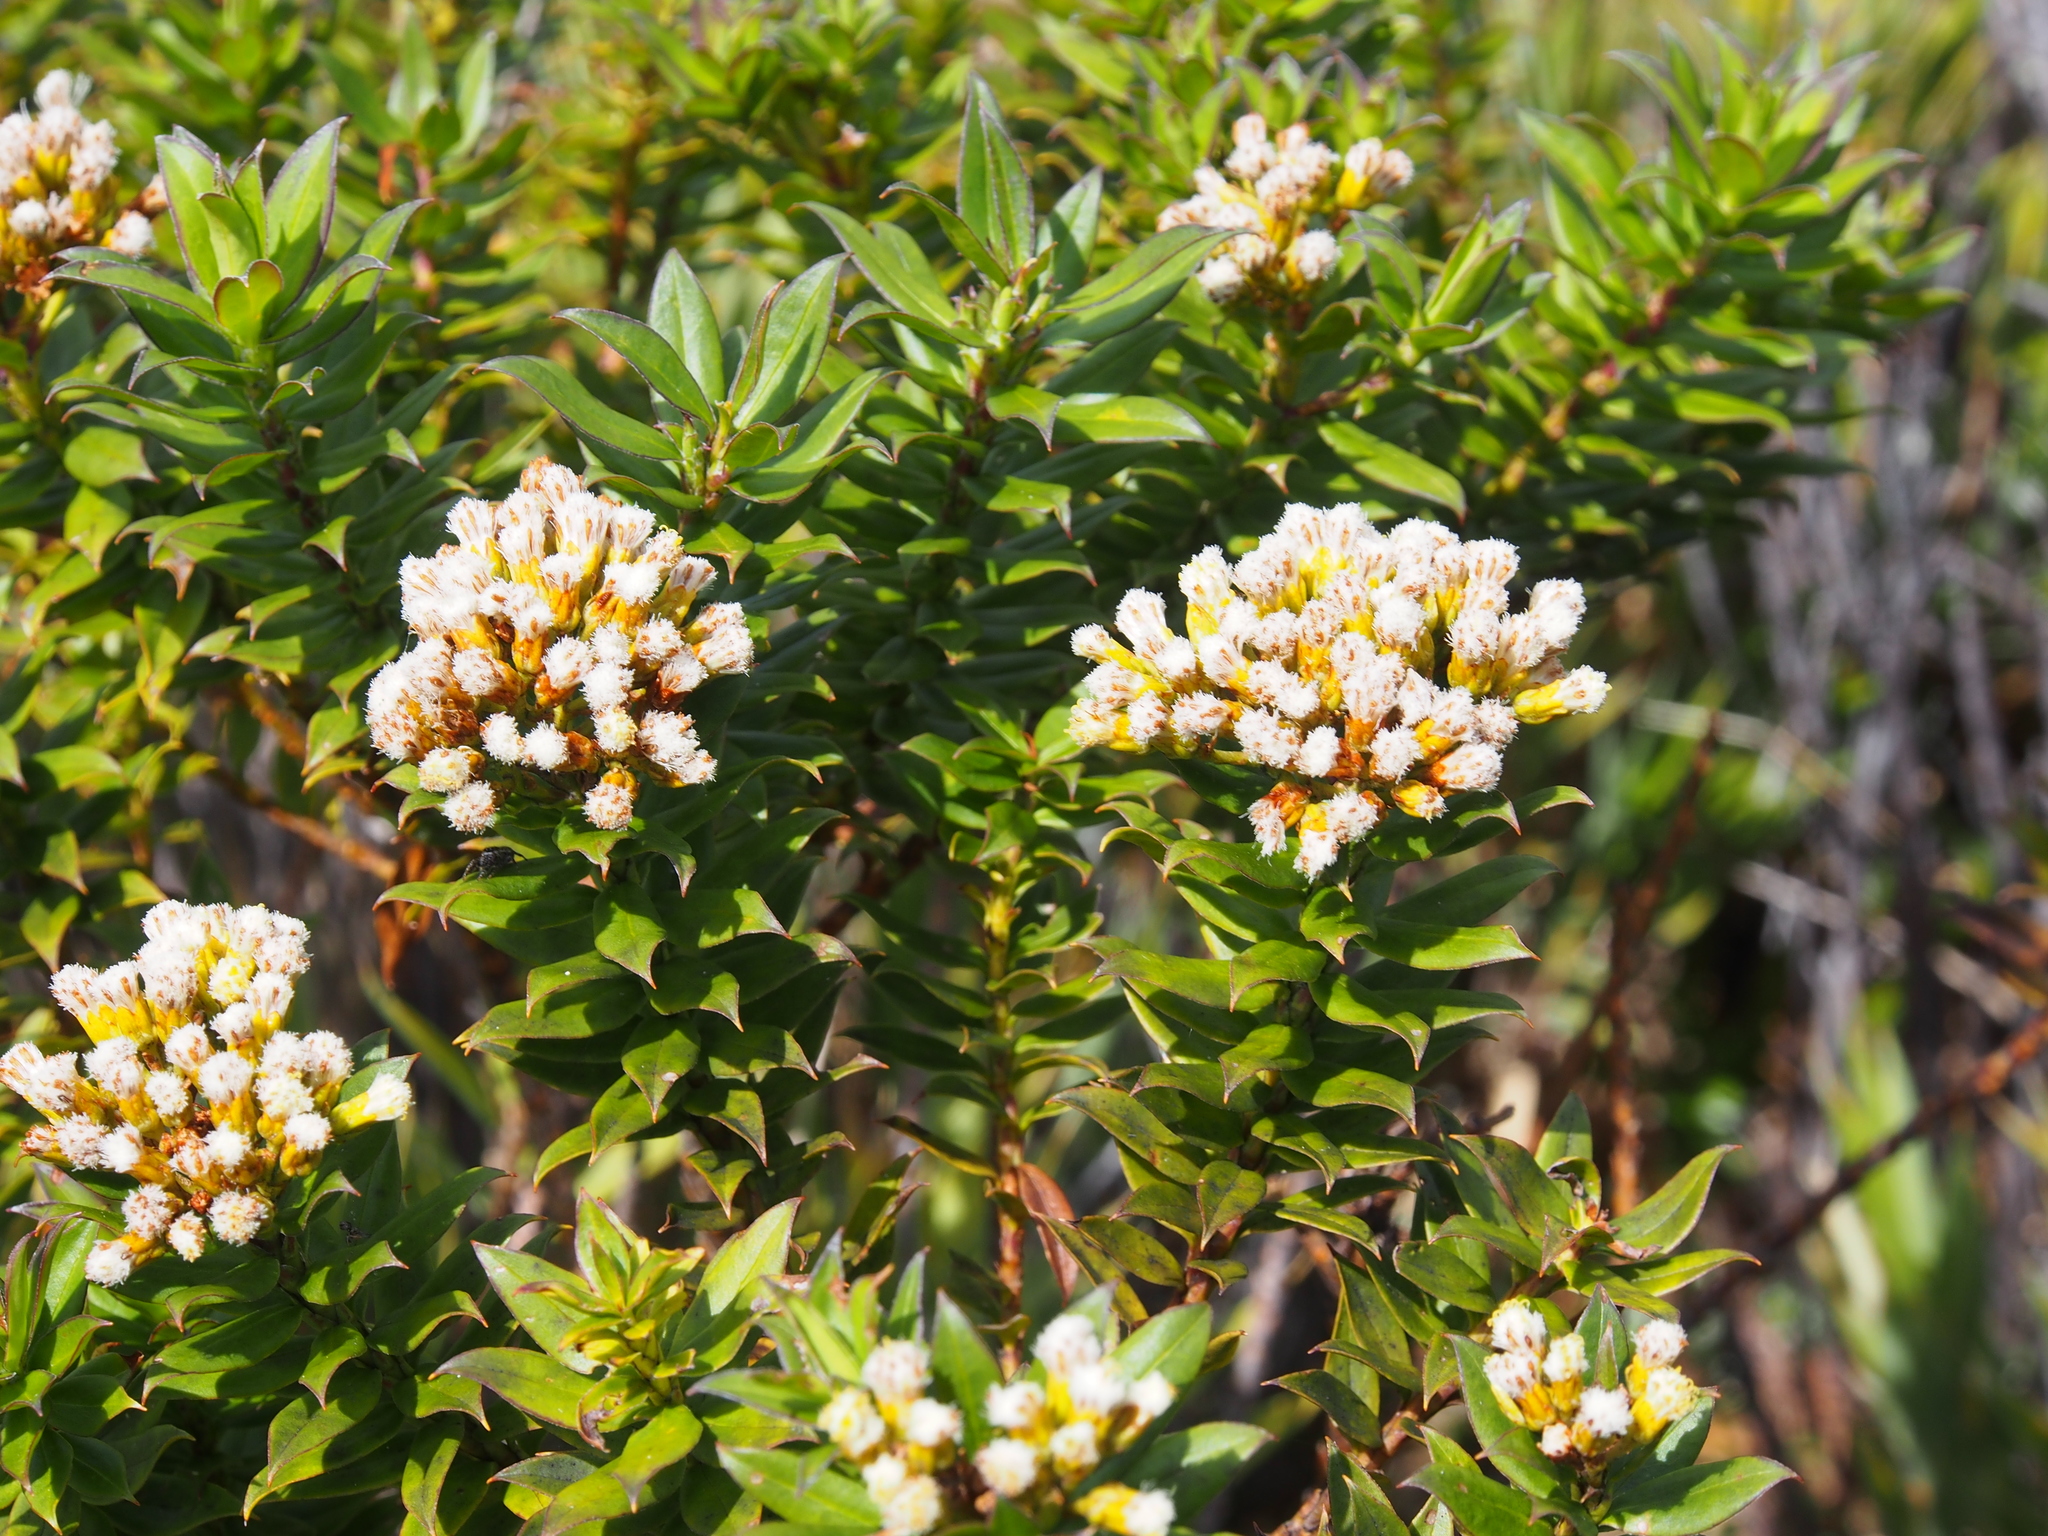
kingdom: Plantae
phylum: Tracheophyta
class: Magnoliopsida
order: Asterales
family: Asteraceae
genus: Monticalia
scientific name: Monticalia firmipes
